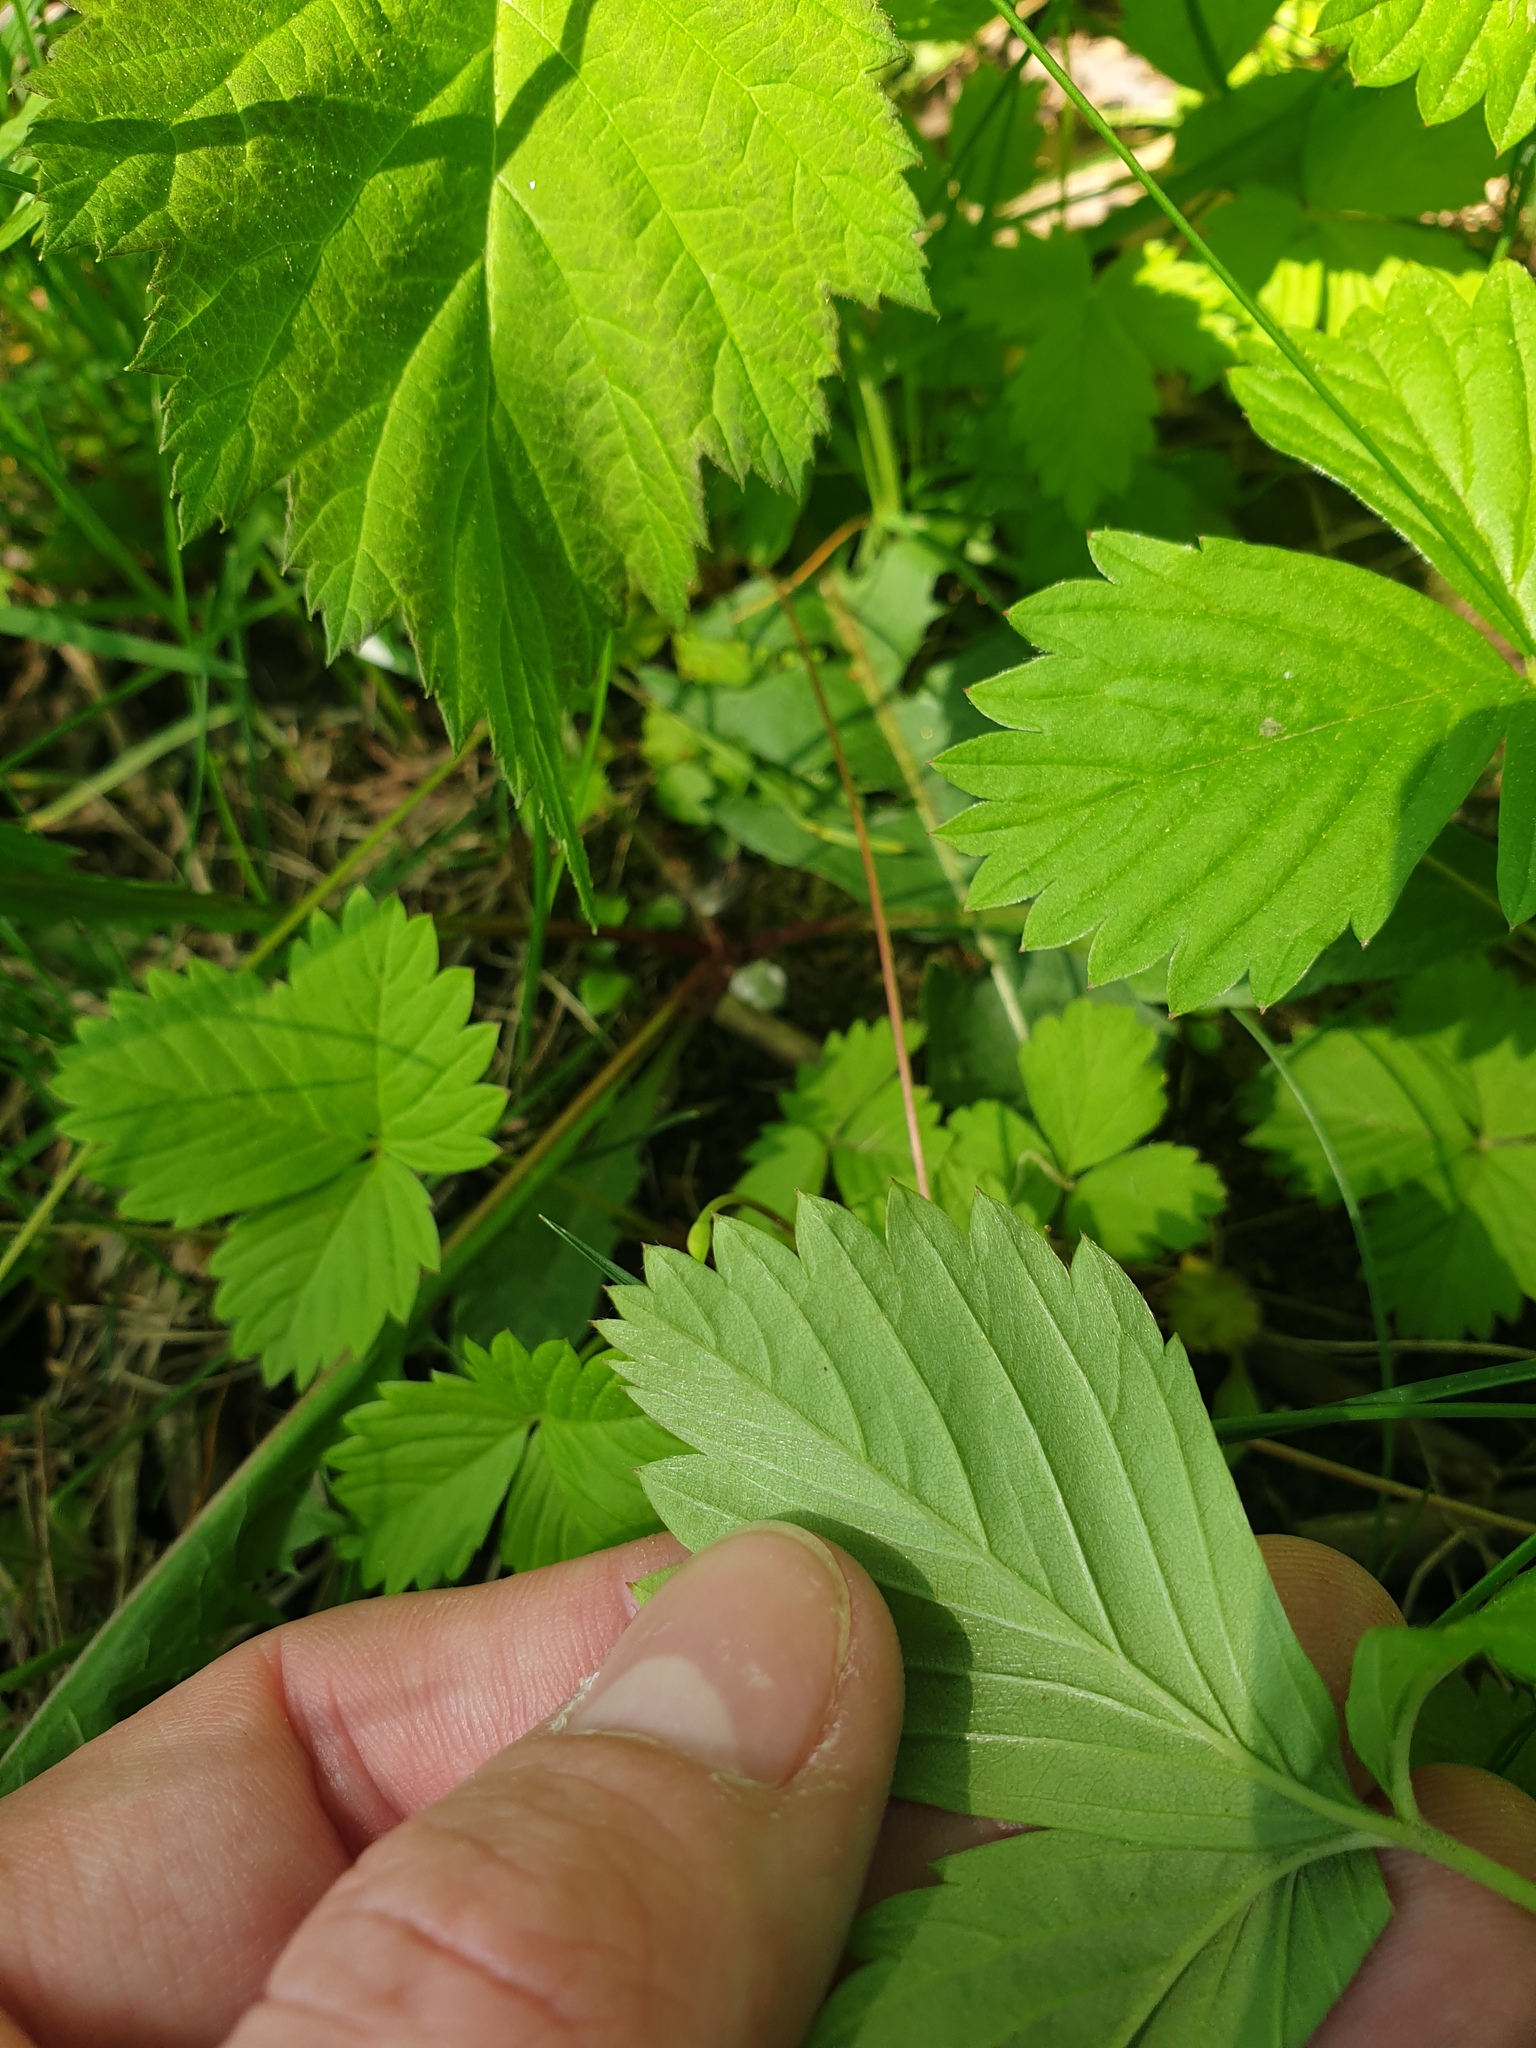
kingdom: Plantae
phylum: Tracheophyta
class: Magnoliopsida
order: Rosales
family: Rosaceae
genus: Fragaria
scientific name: Fragaria vesca
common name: Wild strawberry
